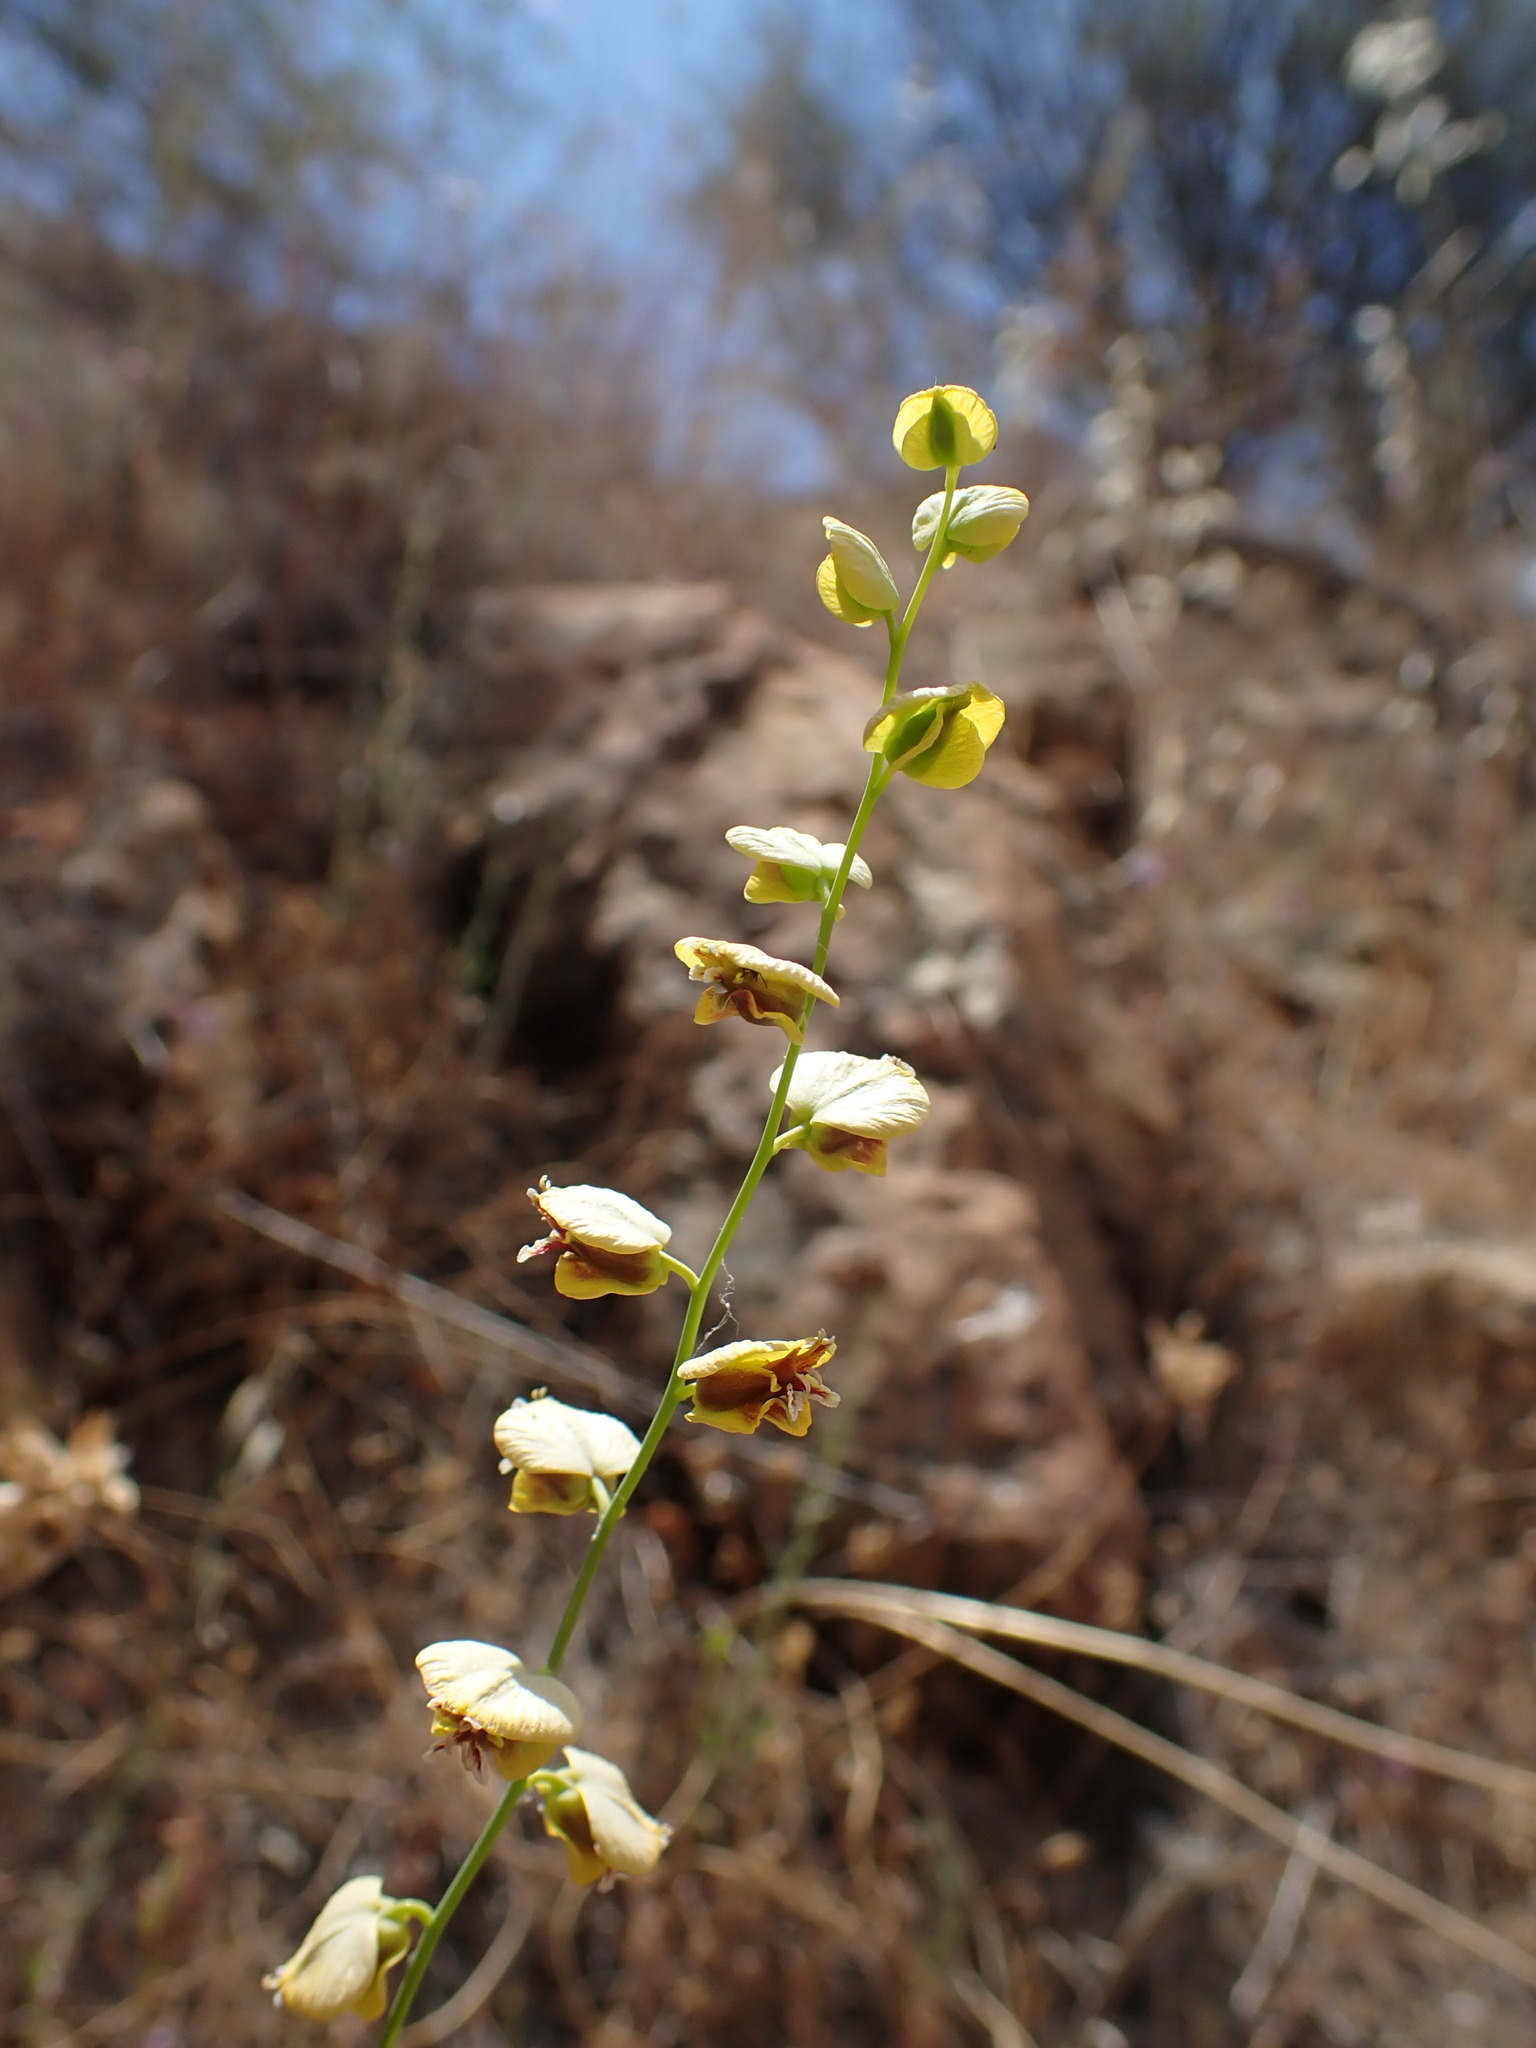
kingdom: Plantae
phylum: Tracheophyta
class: Magnoliopsida
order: Brassicales
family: Brassicaceae
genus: Streptanthus
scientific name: Streptanthus polygaloides
